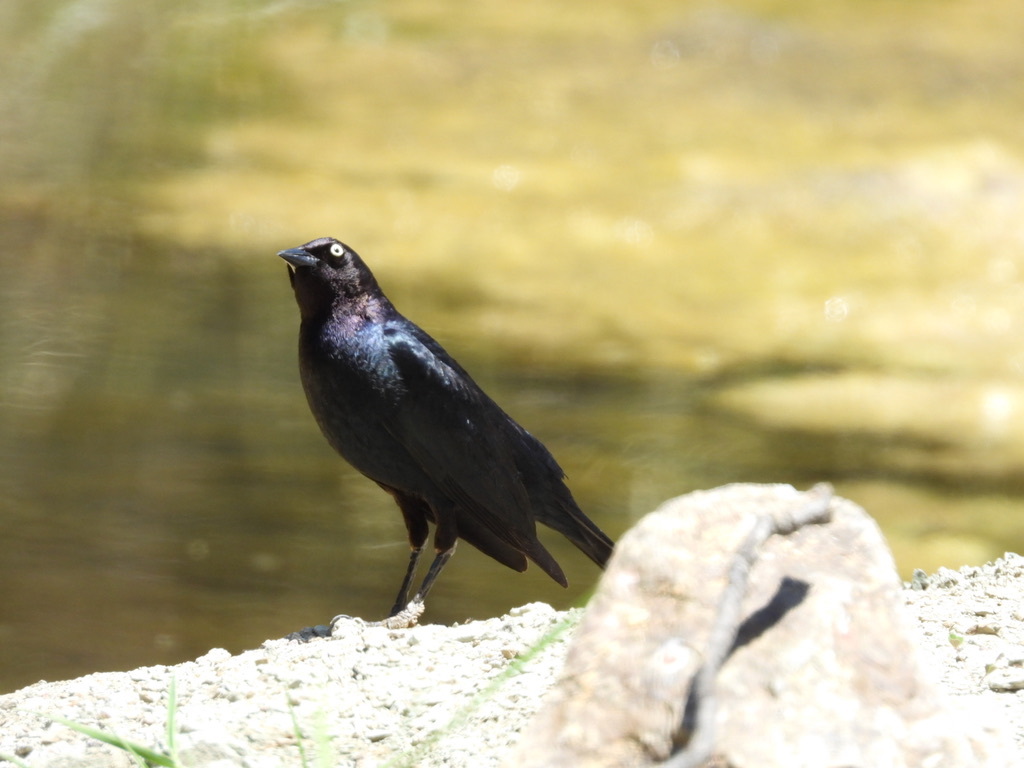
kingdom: Animalia
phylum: Chordata
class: Aves
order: Passeriformes
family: Icteridae
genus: Euphagus
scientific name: Euphagus cyanocephalus
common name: Brewer's blackbird
